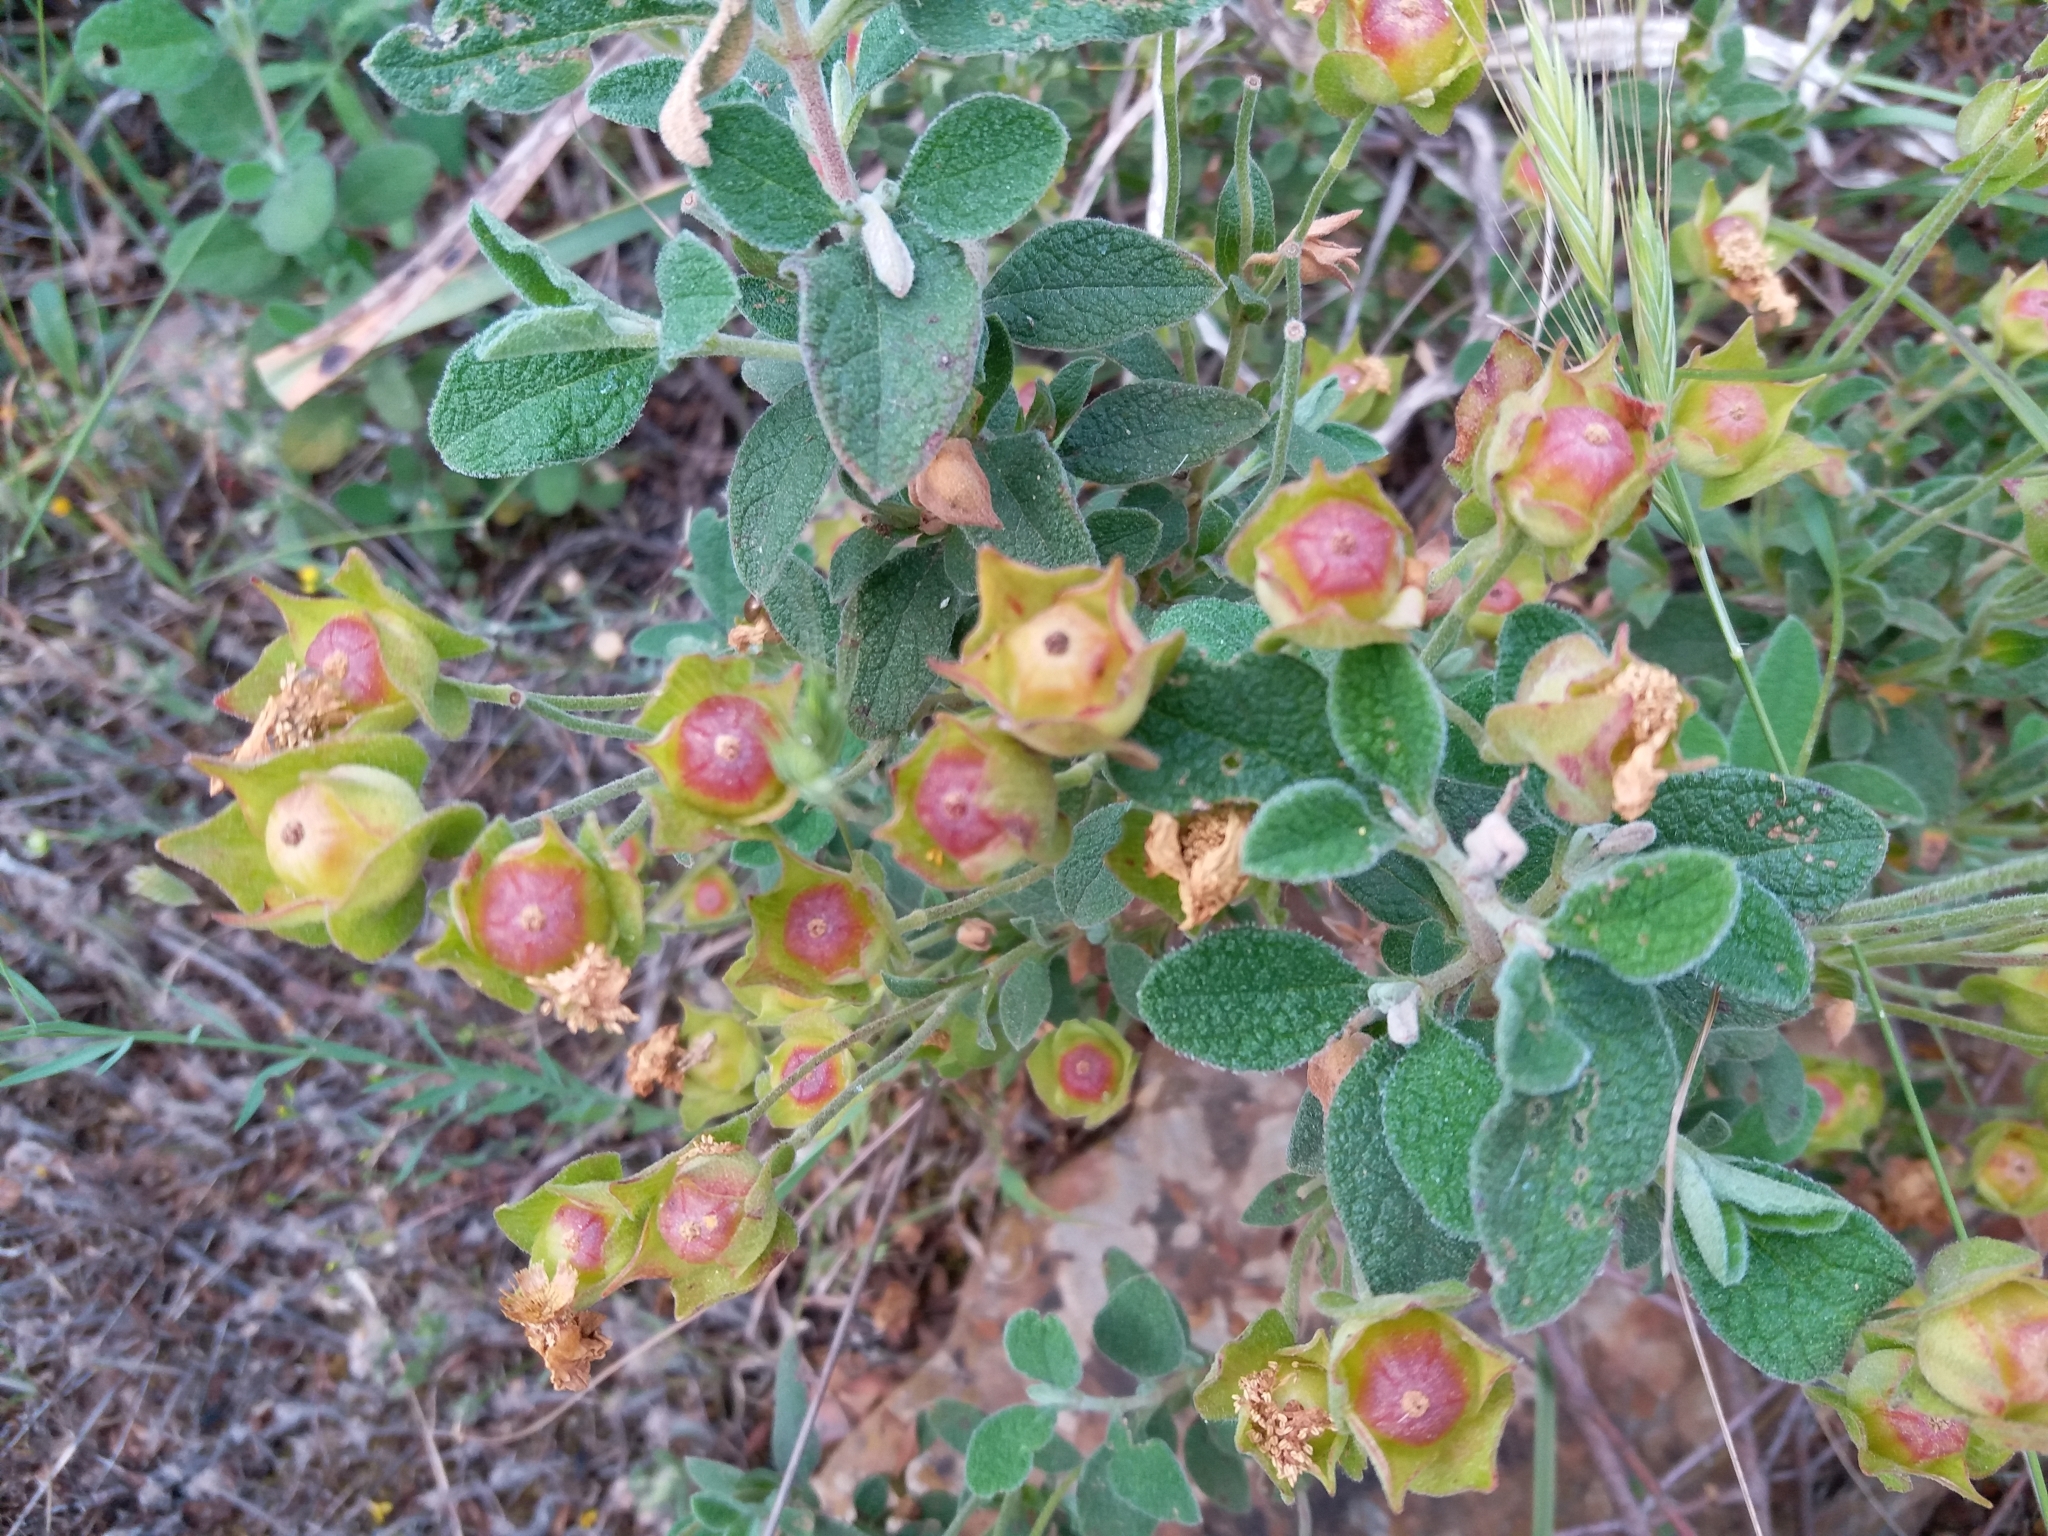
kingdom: Plantae
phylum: Tracheophyta
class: Magnoliopsida
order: Malvales
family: Cistaceae
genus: Cistus
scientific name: Cistus salviifolius
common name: Salvia cistus
